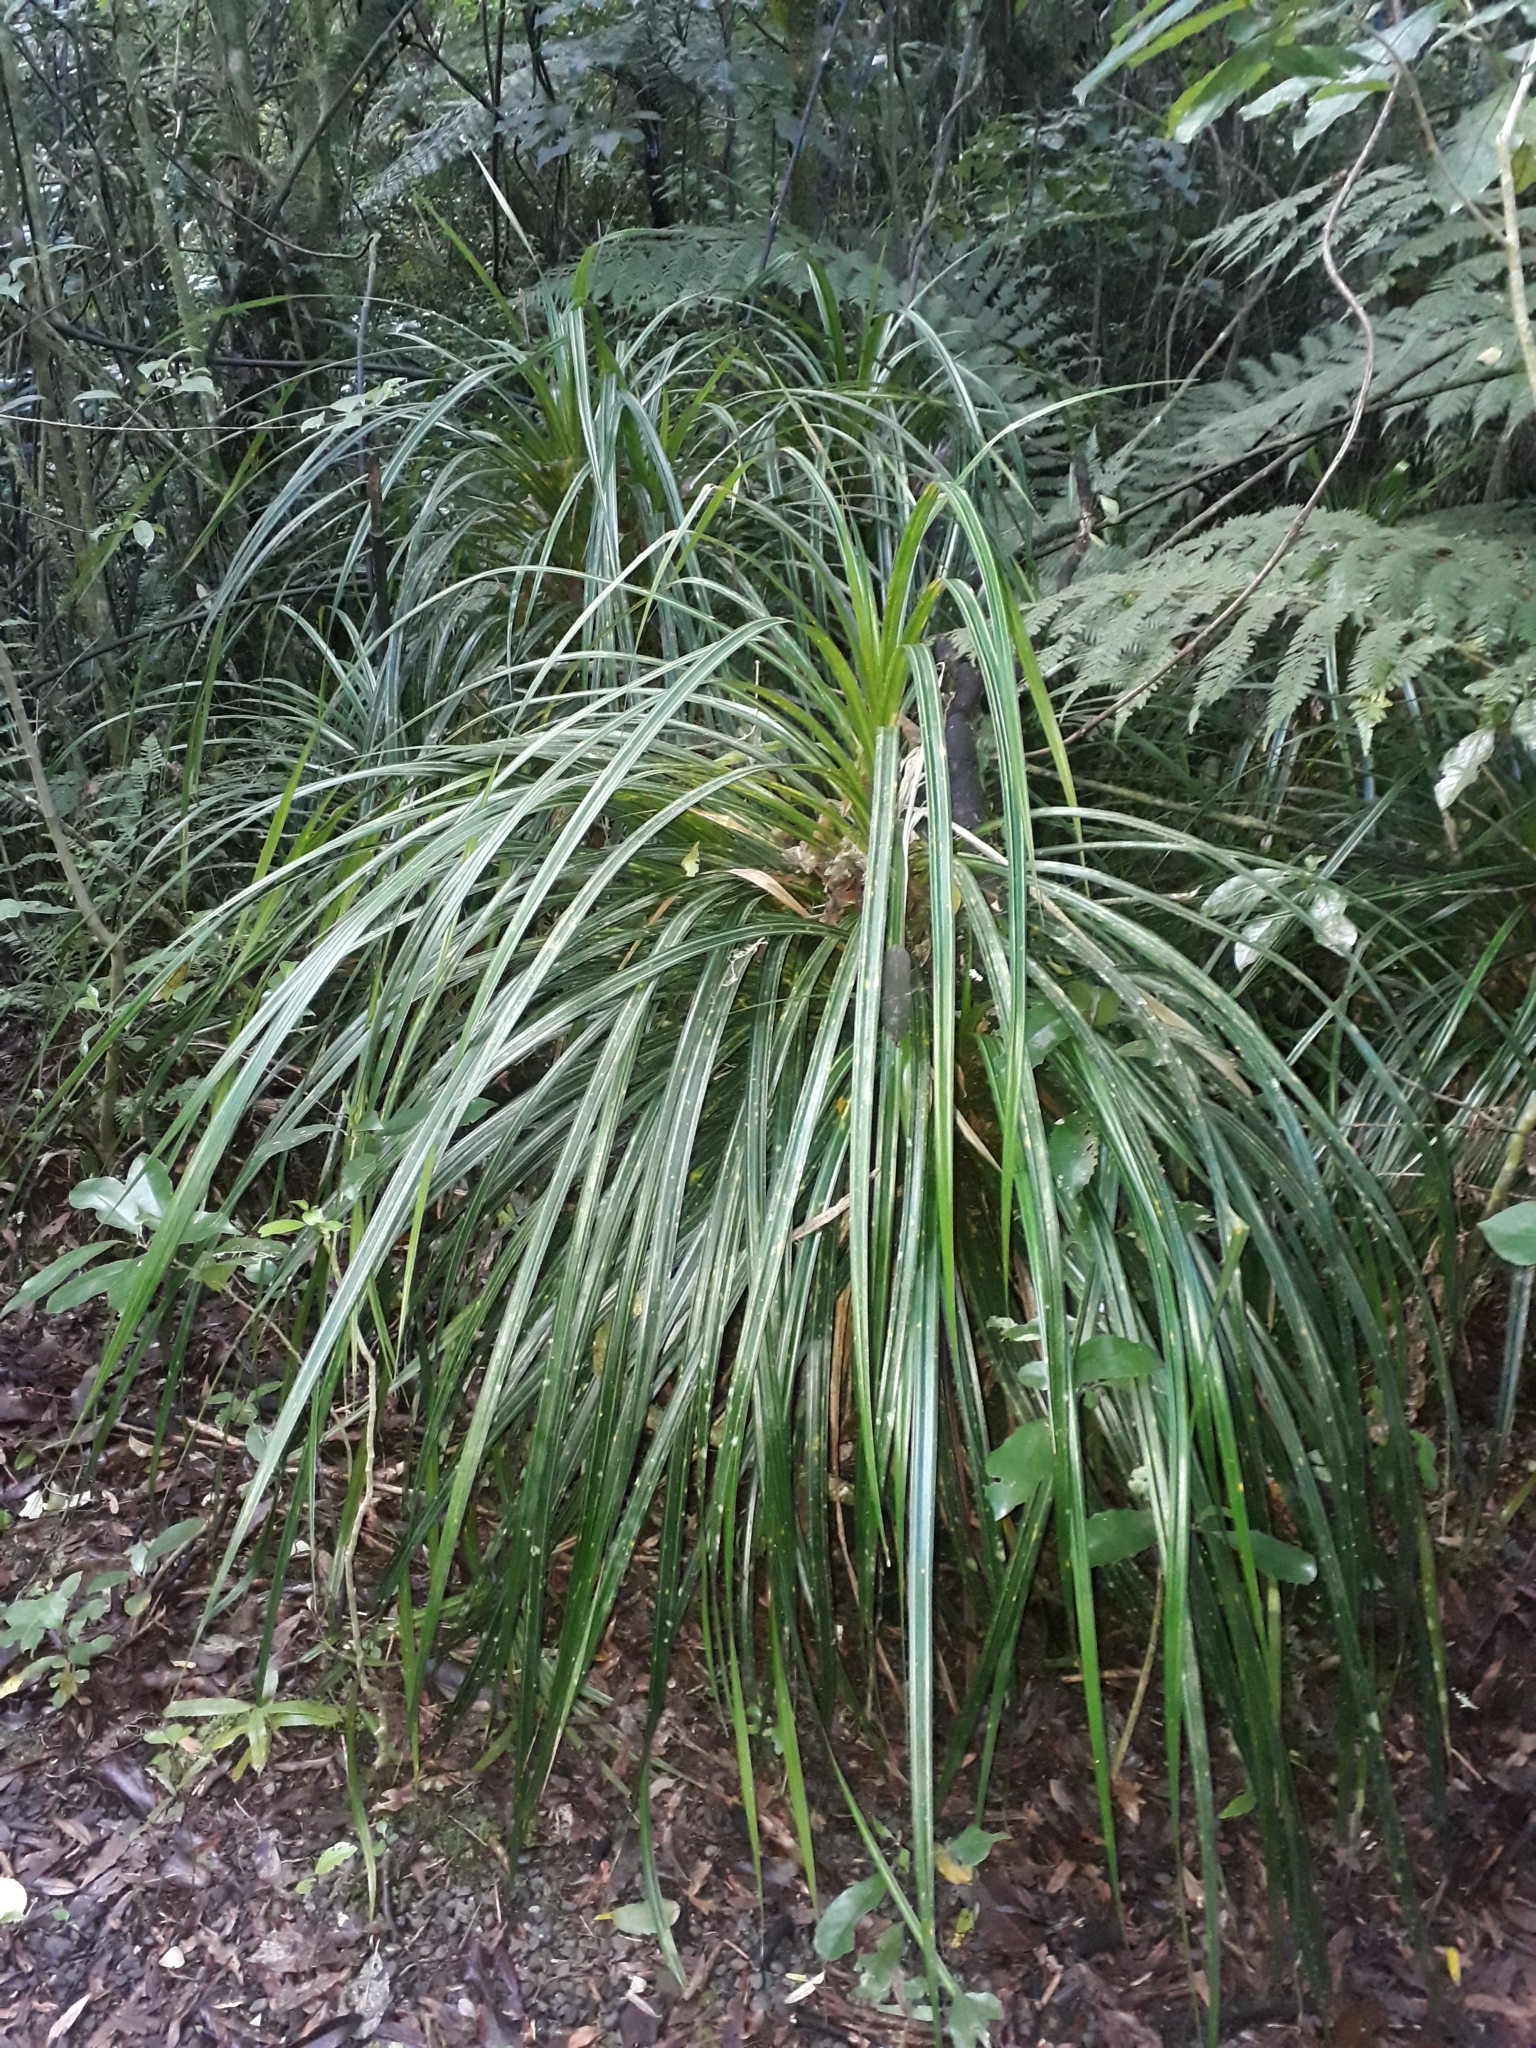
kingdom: Plantae
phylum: Tracheophyta
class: Liliopsida
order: Pandanales
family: Pandanaceae
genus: Freycinetia
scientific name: Freycinetia banksii
